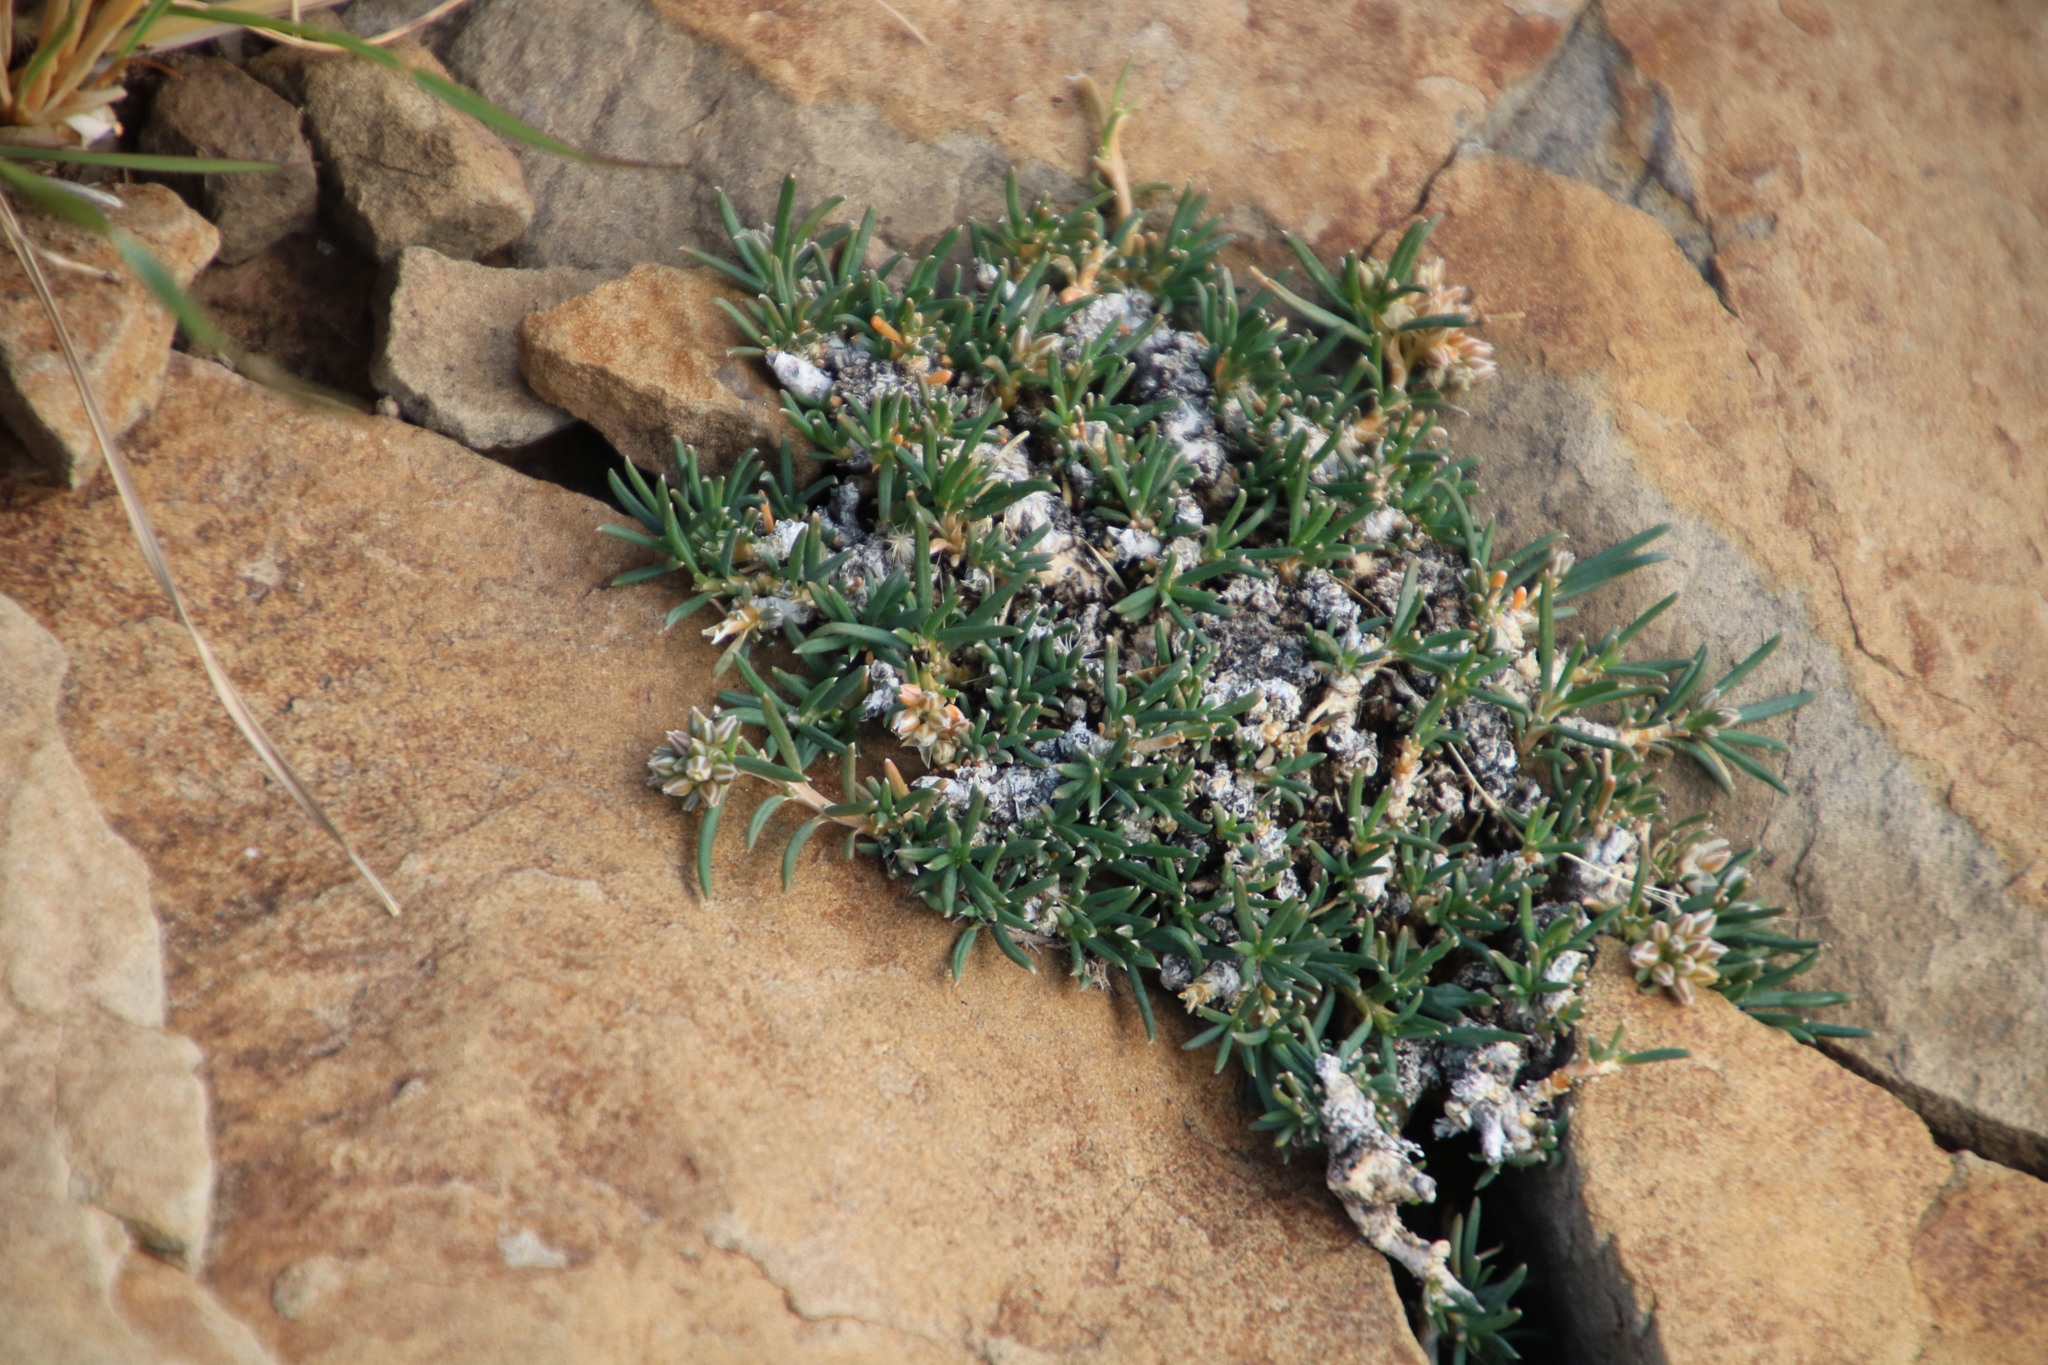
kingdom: Plantae
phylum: Tracheophyta
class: Magnoliopsida
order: Caryophyllales
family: Limeaceae
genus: Limeum
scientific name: Limeum aethiopicum
